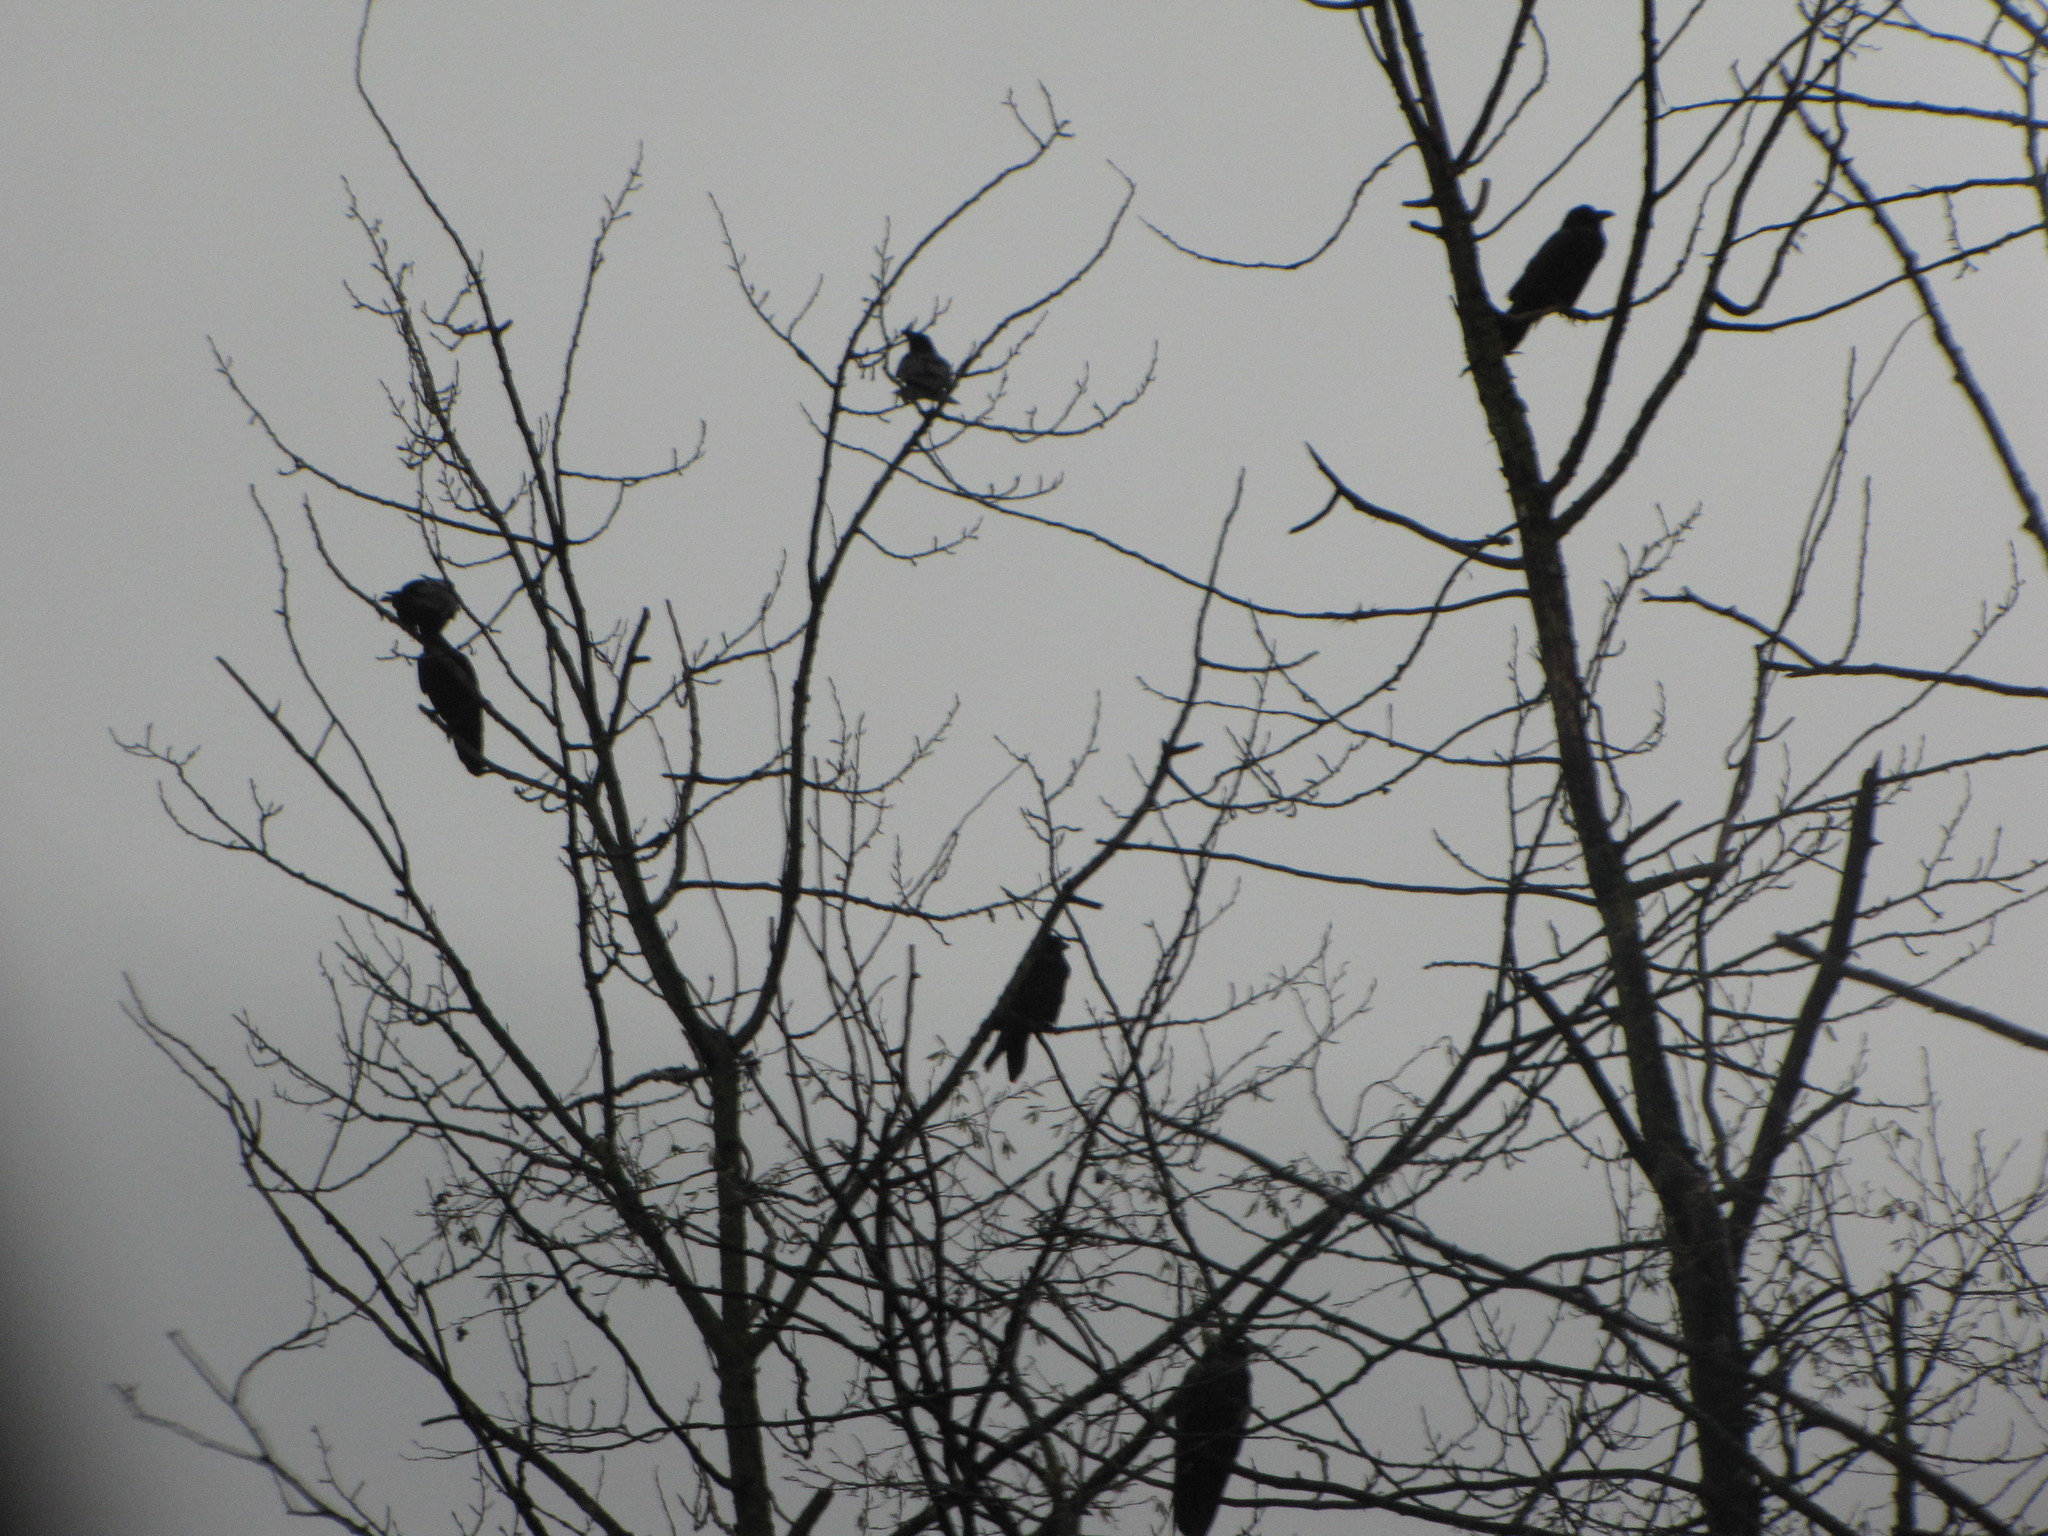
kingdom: Animalia
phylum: Chordata
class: Aves
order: Passeriformes
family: Corvidae
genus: Corvus
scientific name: Corvus corax
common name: Common raven
